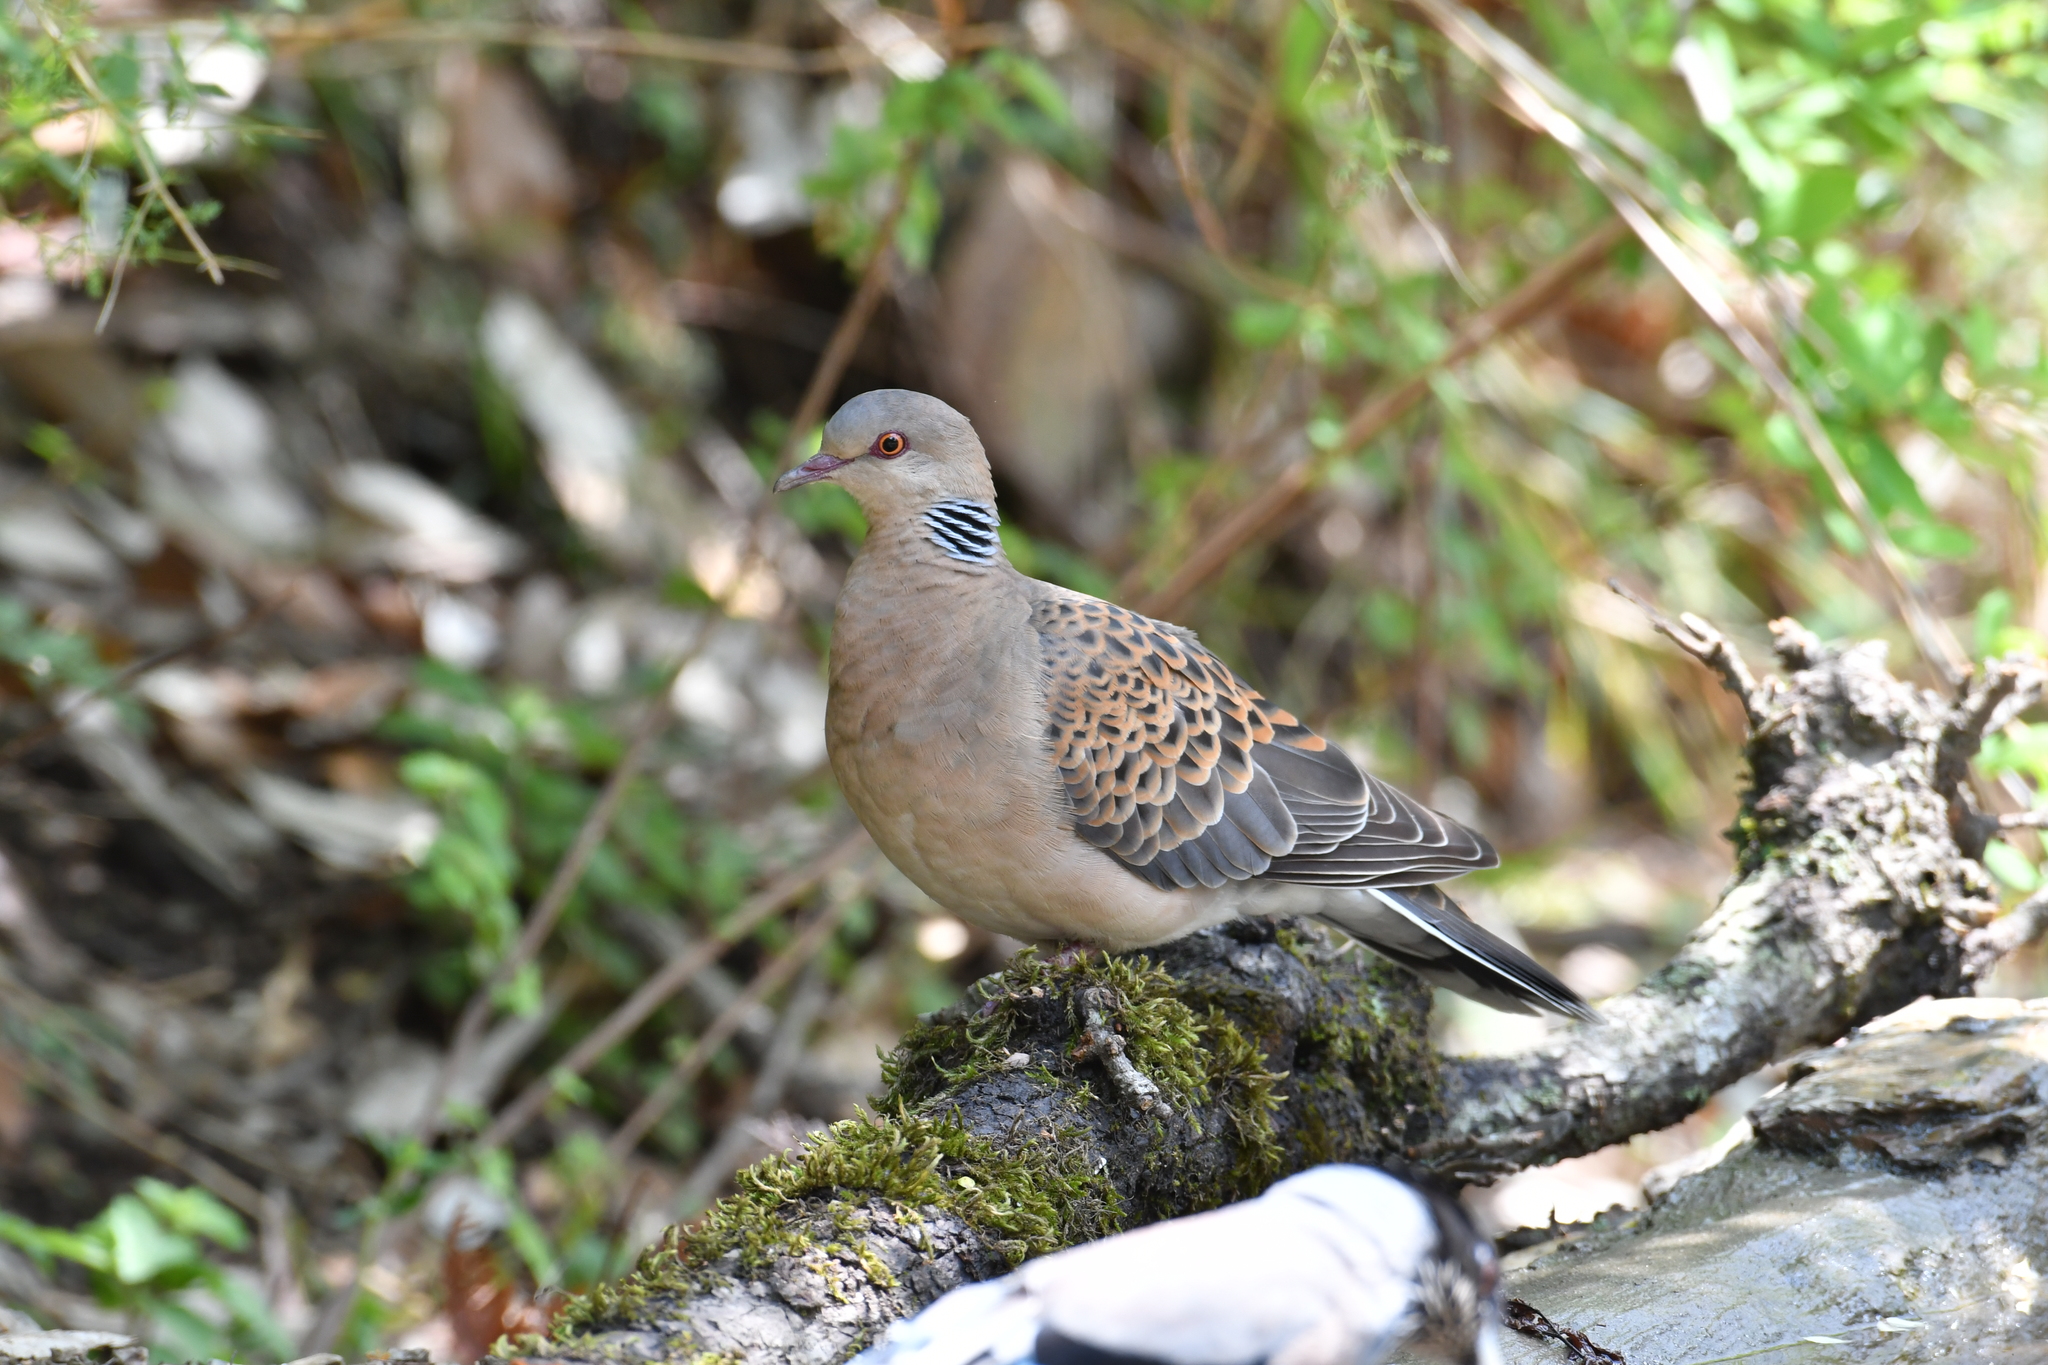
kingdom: Animalia
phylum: Chordata
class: Aves
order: Columbiformes
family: Columbidae
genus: Streptopelia
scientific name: Streptopelia orientalis
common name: Oriental turtle dove
